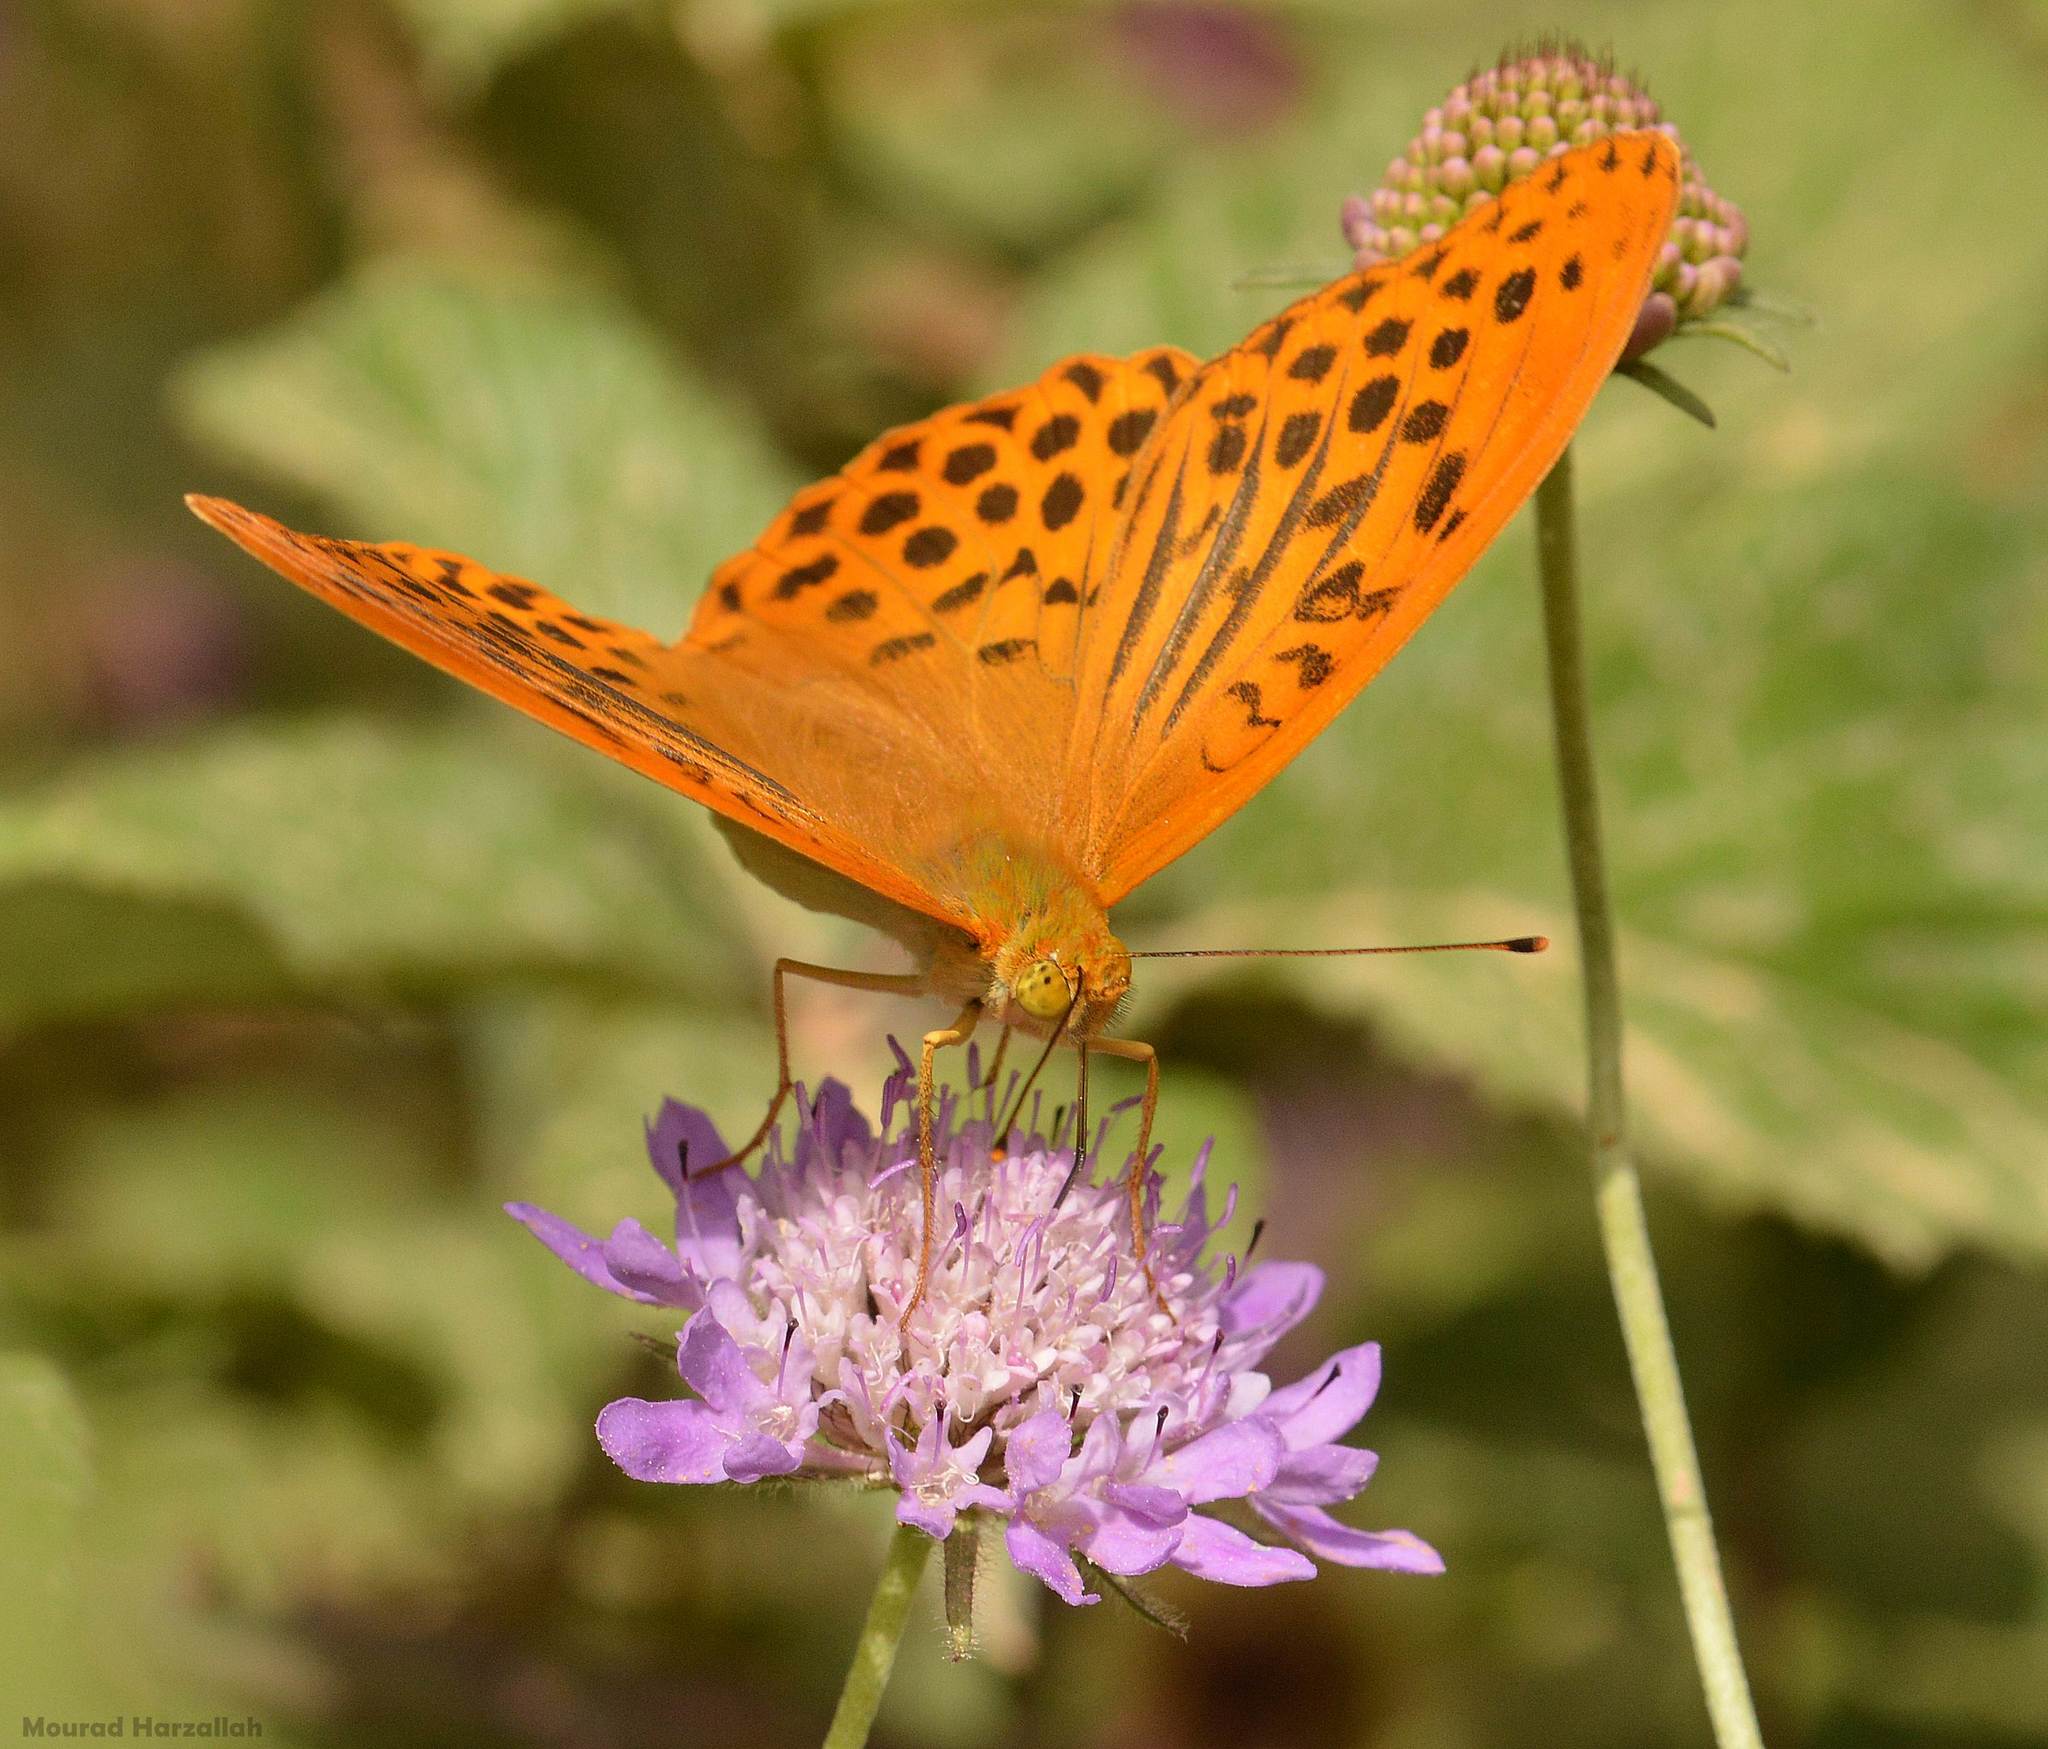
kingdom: Animalia
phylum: Arthropoda
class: Insecta
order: Lepidoptera
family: Nymphalidae
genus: Argynnis
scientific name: Argynnis paphia
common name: Silver-washed fritillary
